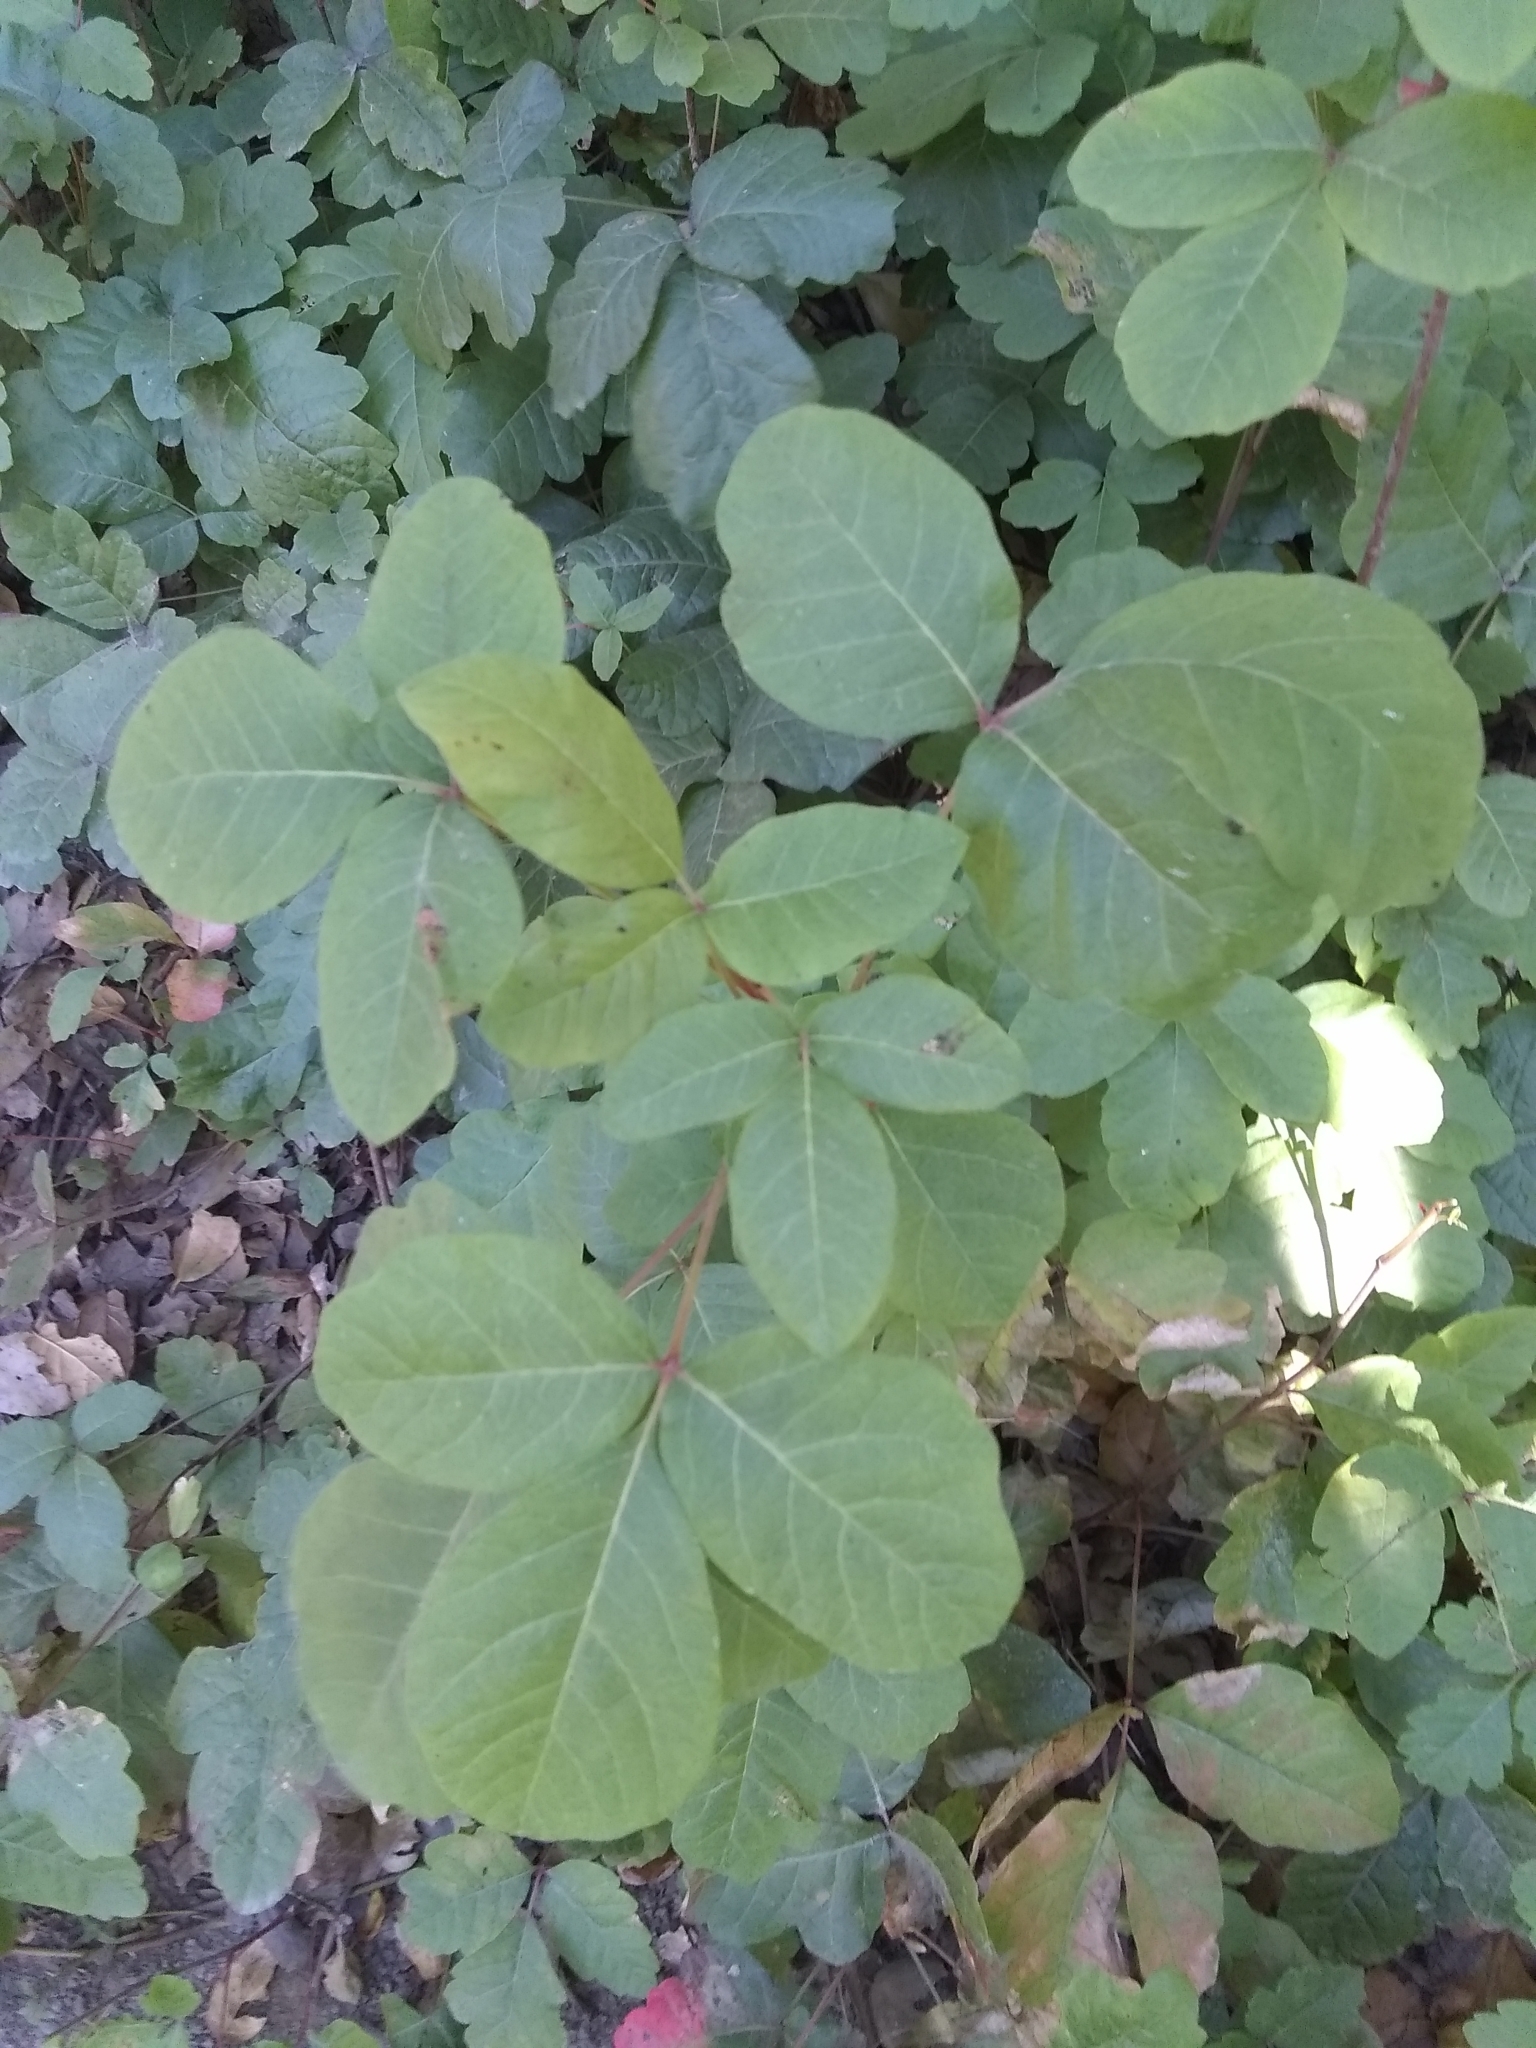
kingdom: Plantae
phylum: Tracheophyta
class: Magnoliopsida
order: Sapindales
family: Anacardiaceae
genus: Toxicodendron
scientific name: Toxicodendron diversilobum
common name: Pacific poison-oak
